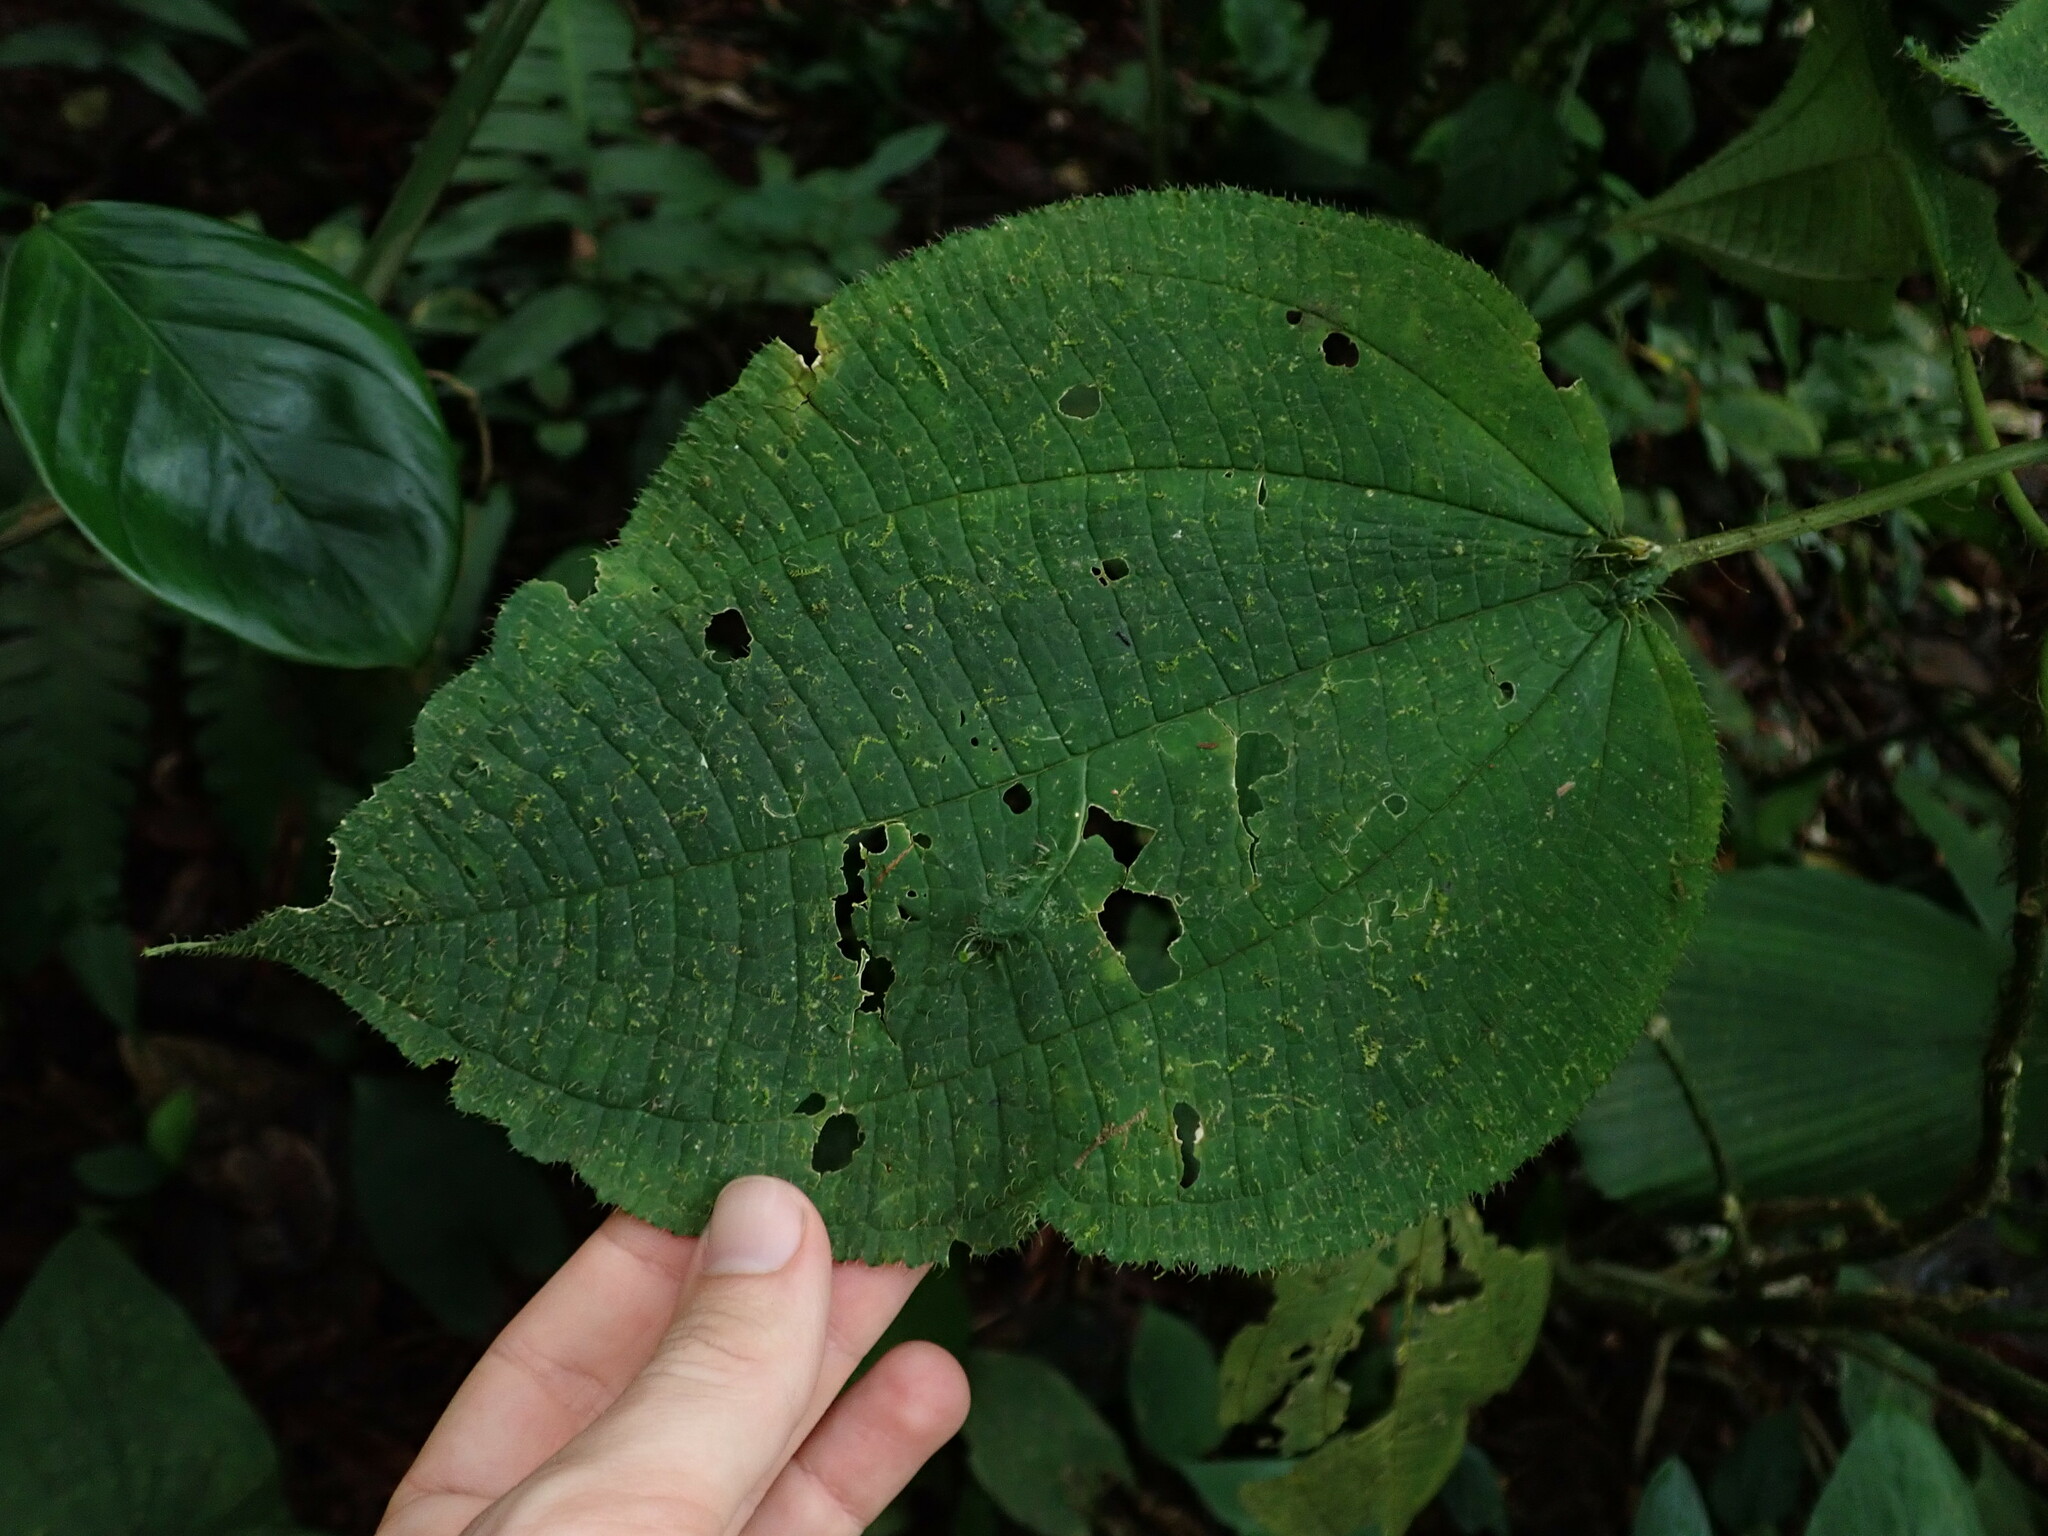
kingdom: Plantae
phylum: Tracheophyta
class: Magnoliopsida
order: Myrtales
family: Melastomataceae
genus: Miconia
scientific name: Miconia symphyandra
